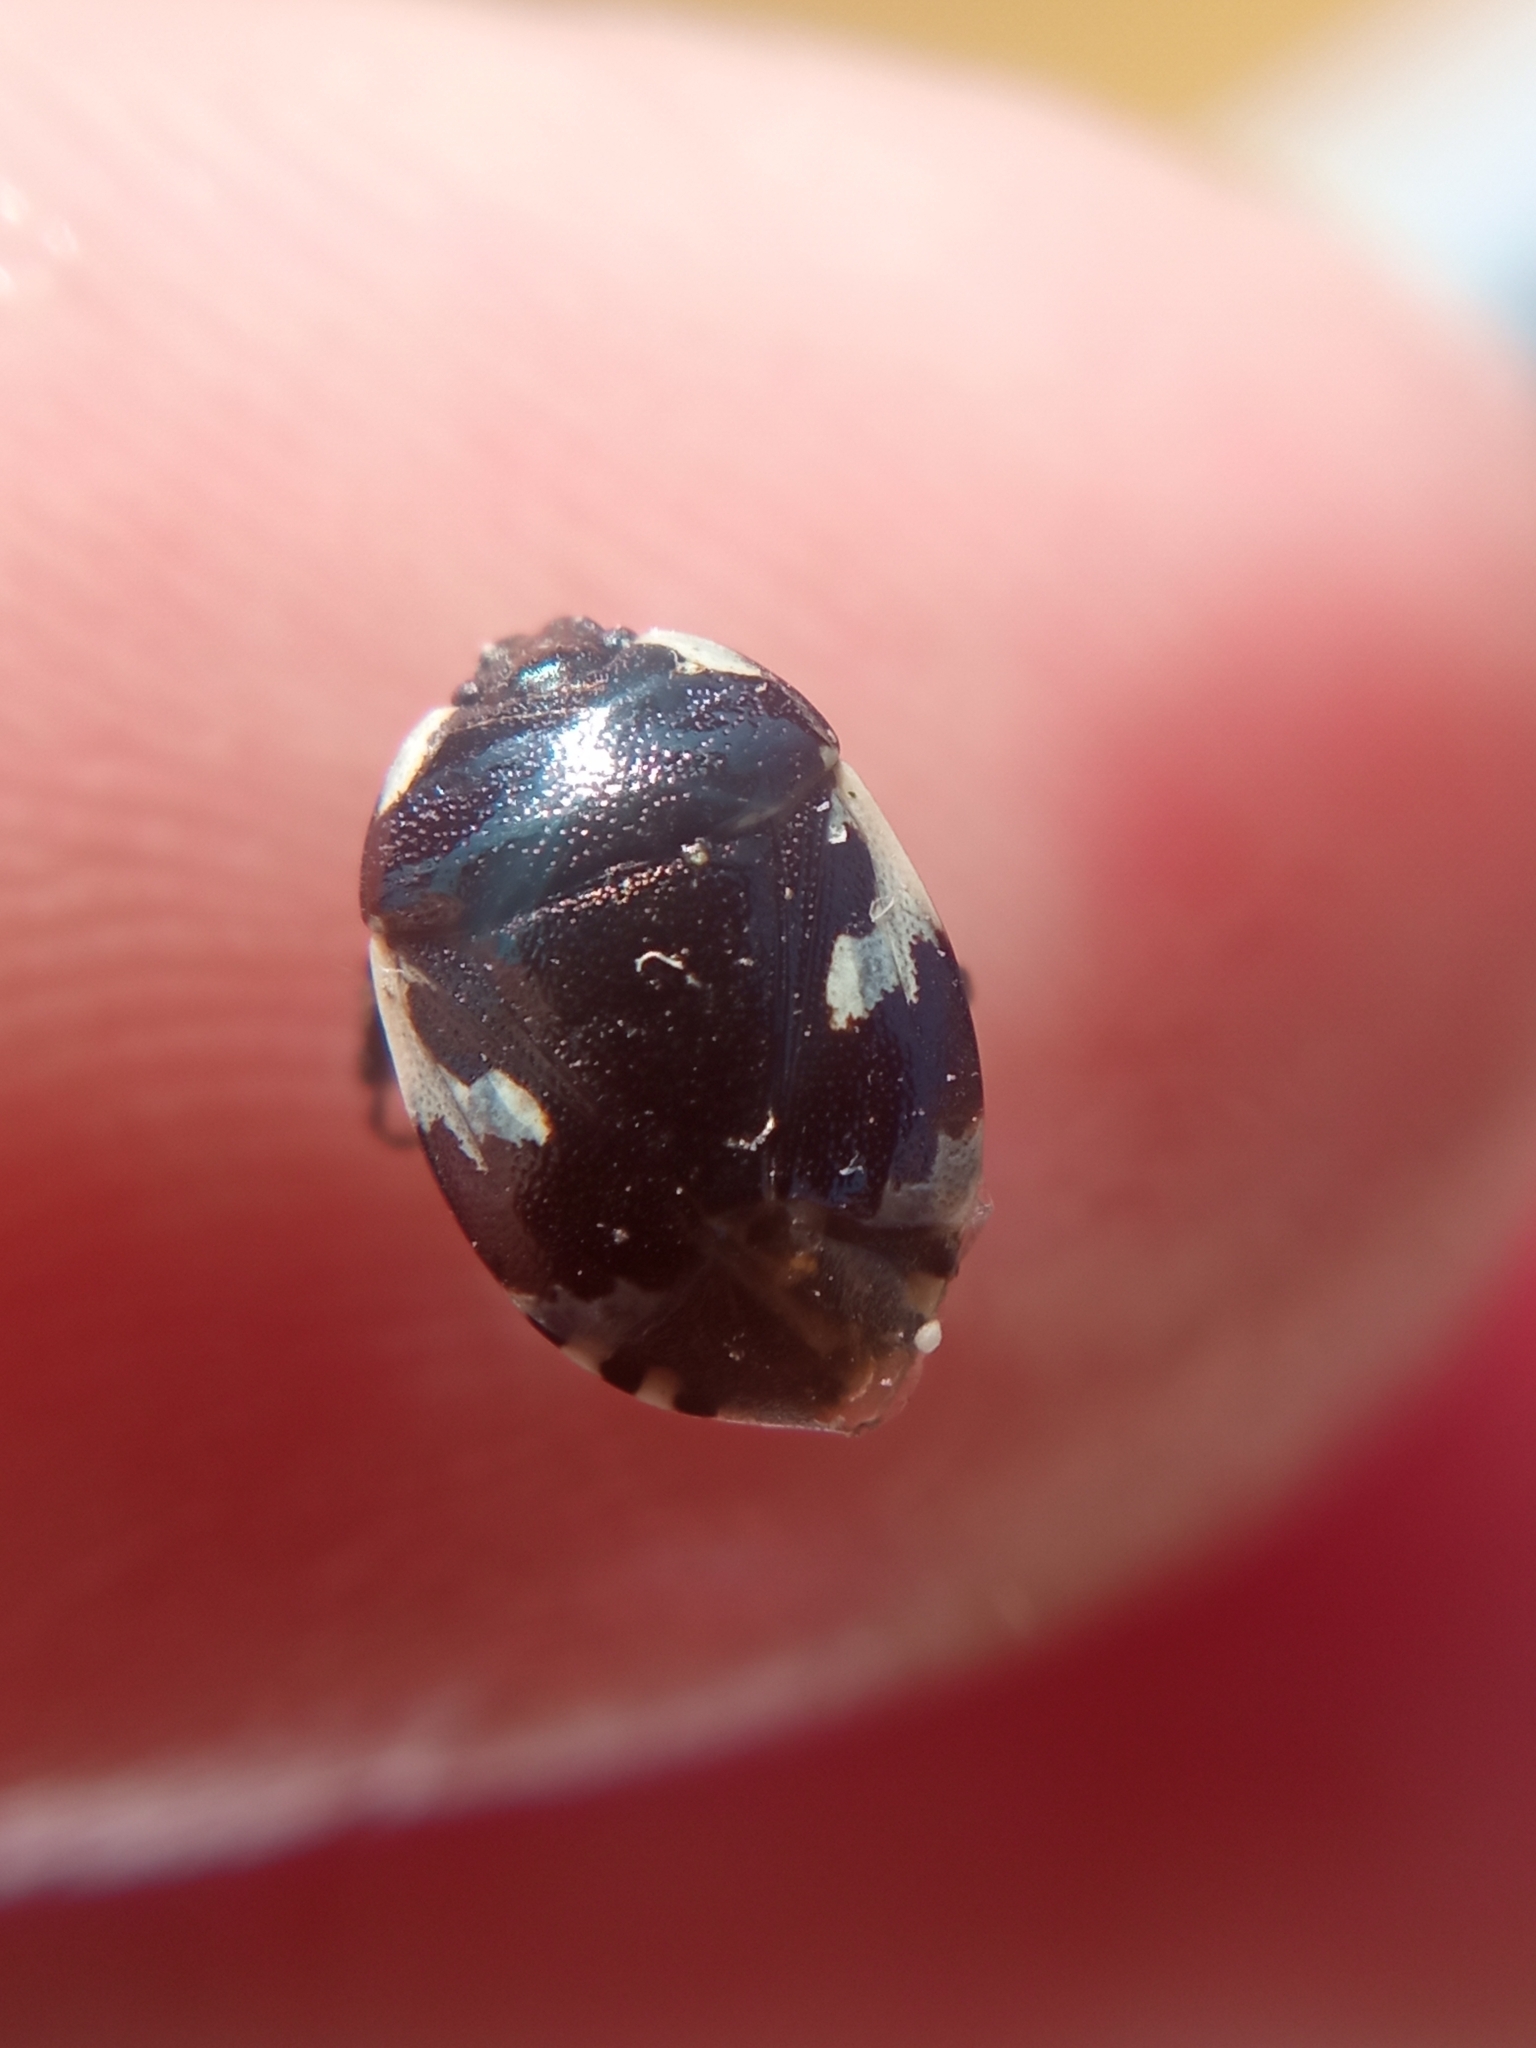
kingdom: Animalia
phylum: Arthropoda
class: Insecta
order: Hemiptera
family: Cydnidae
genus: Tritomegas
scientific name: Tritomegas bicolor
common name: Pied shieldbug
